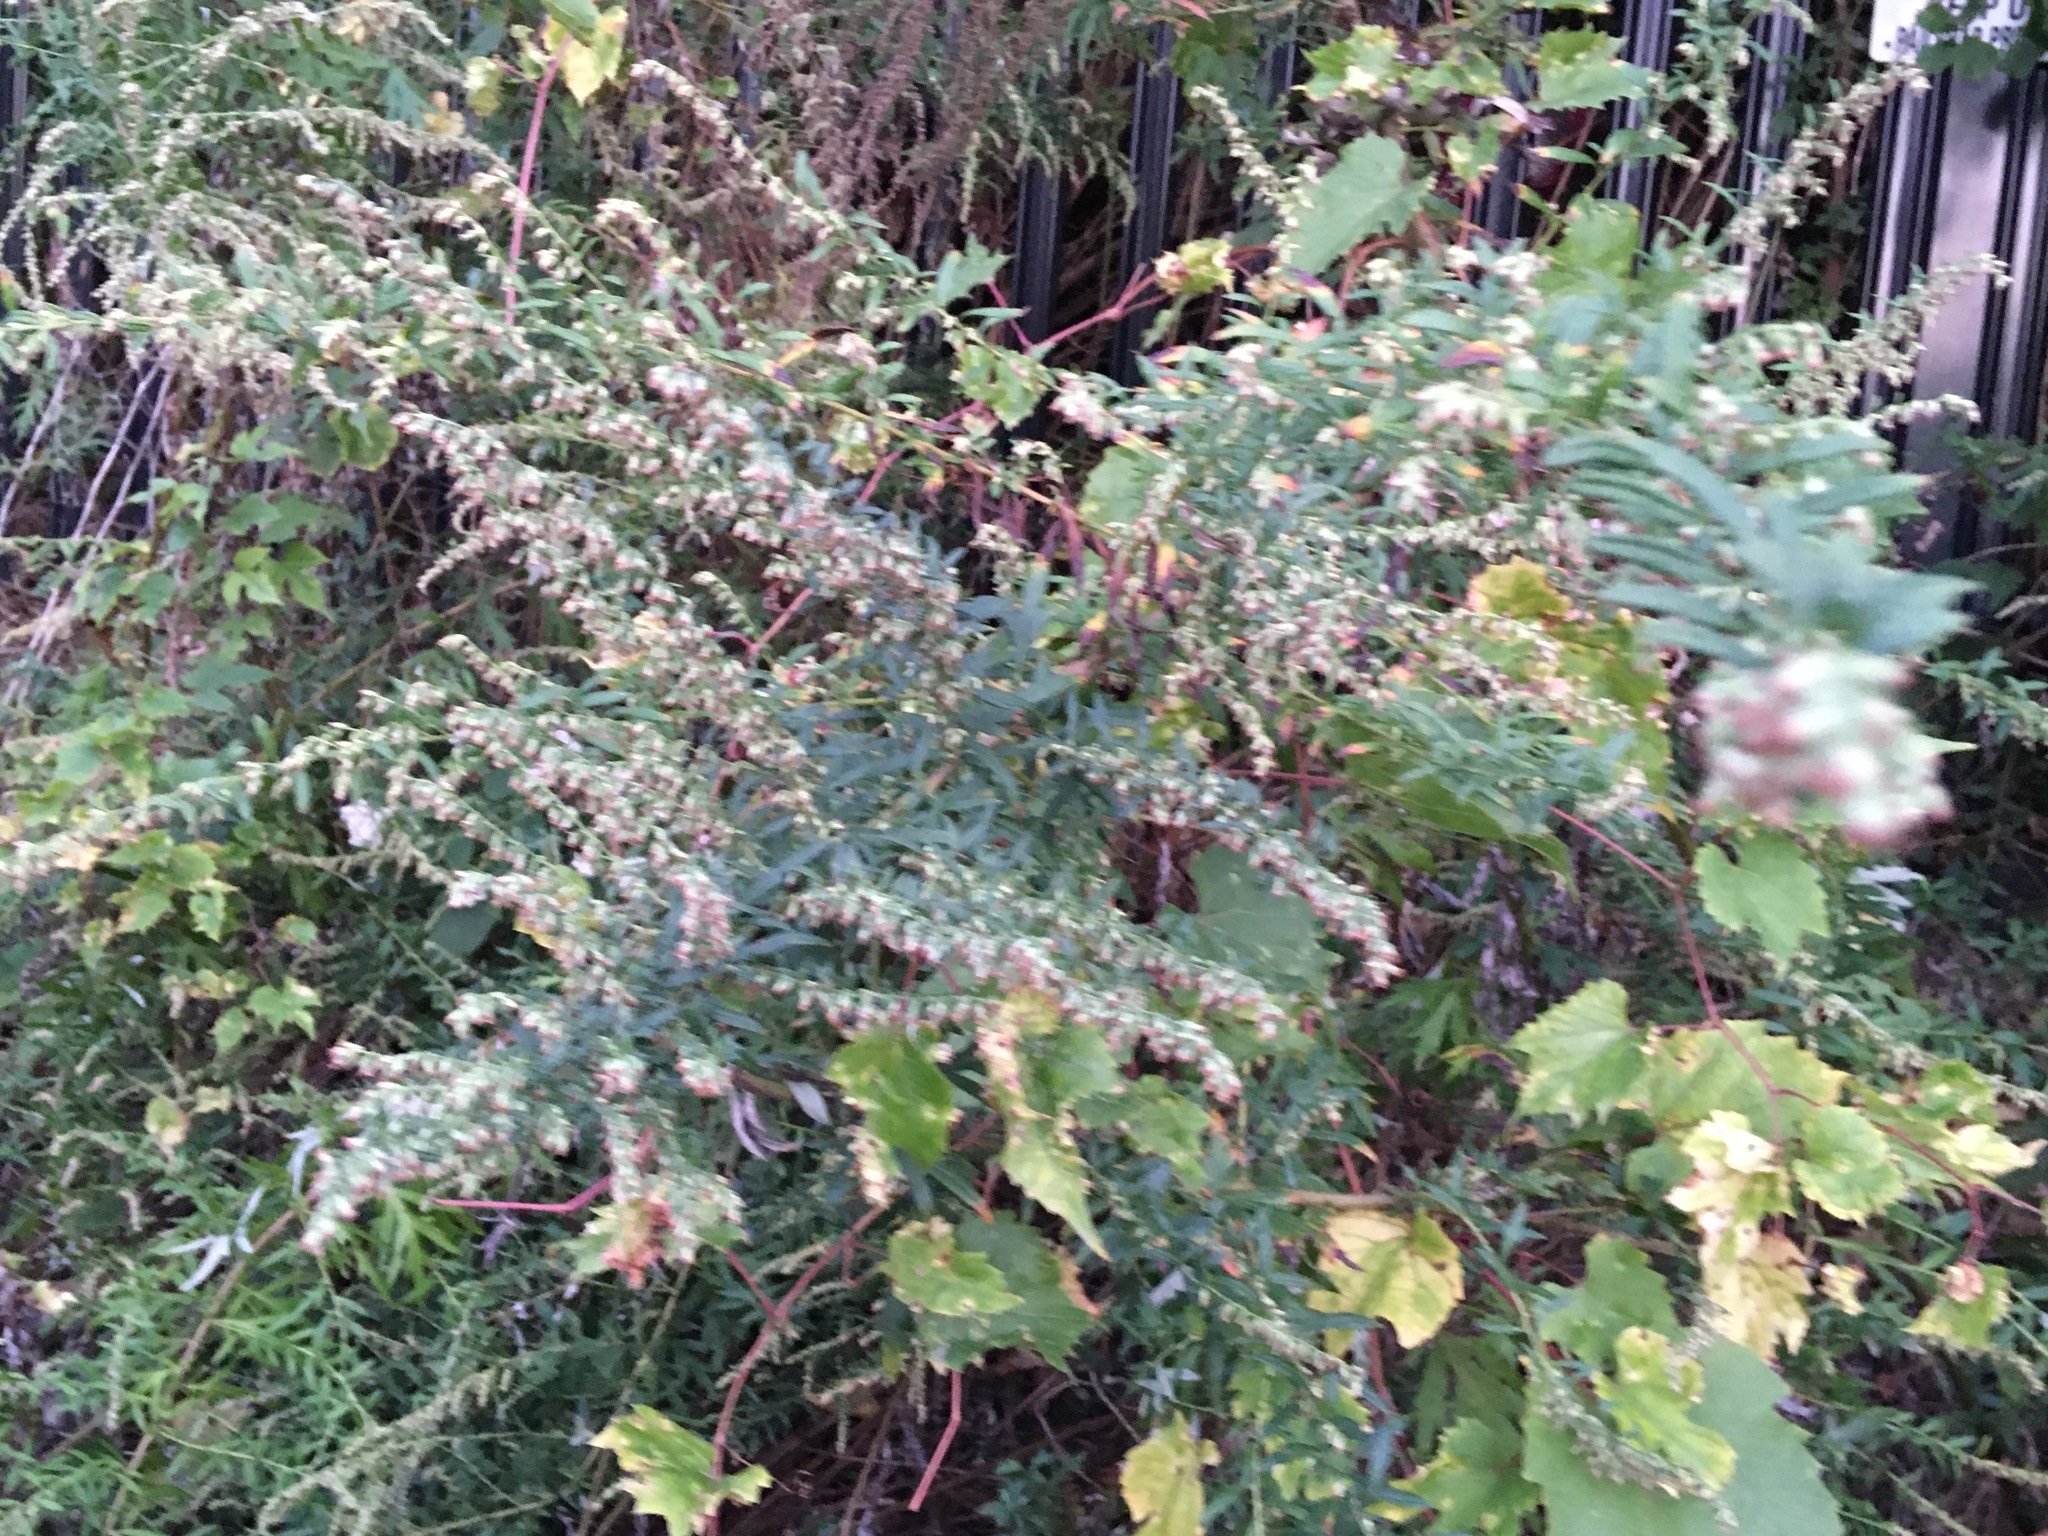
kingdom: Plantae
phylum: Tracheophyta
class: Magnoliopsida
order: Asterales
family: Asteraceae
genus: Artemisia
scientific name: Artemisia vulgaris
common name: Mugwort
